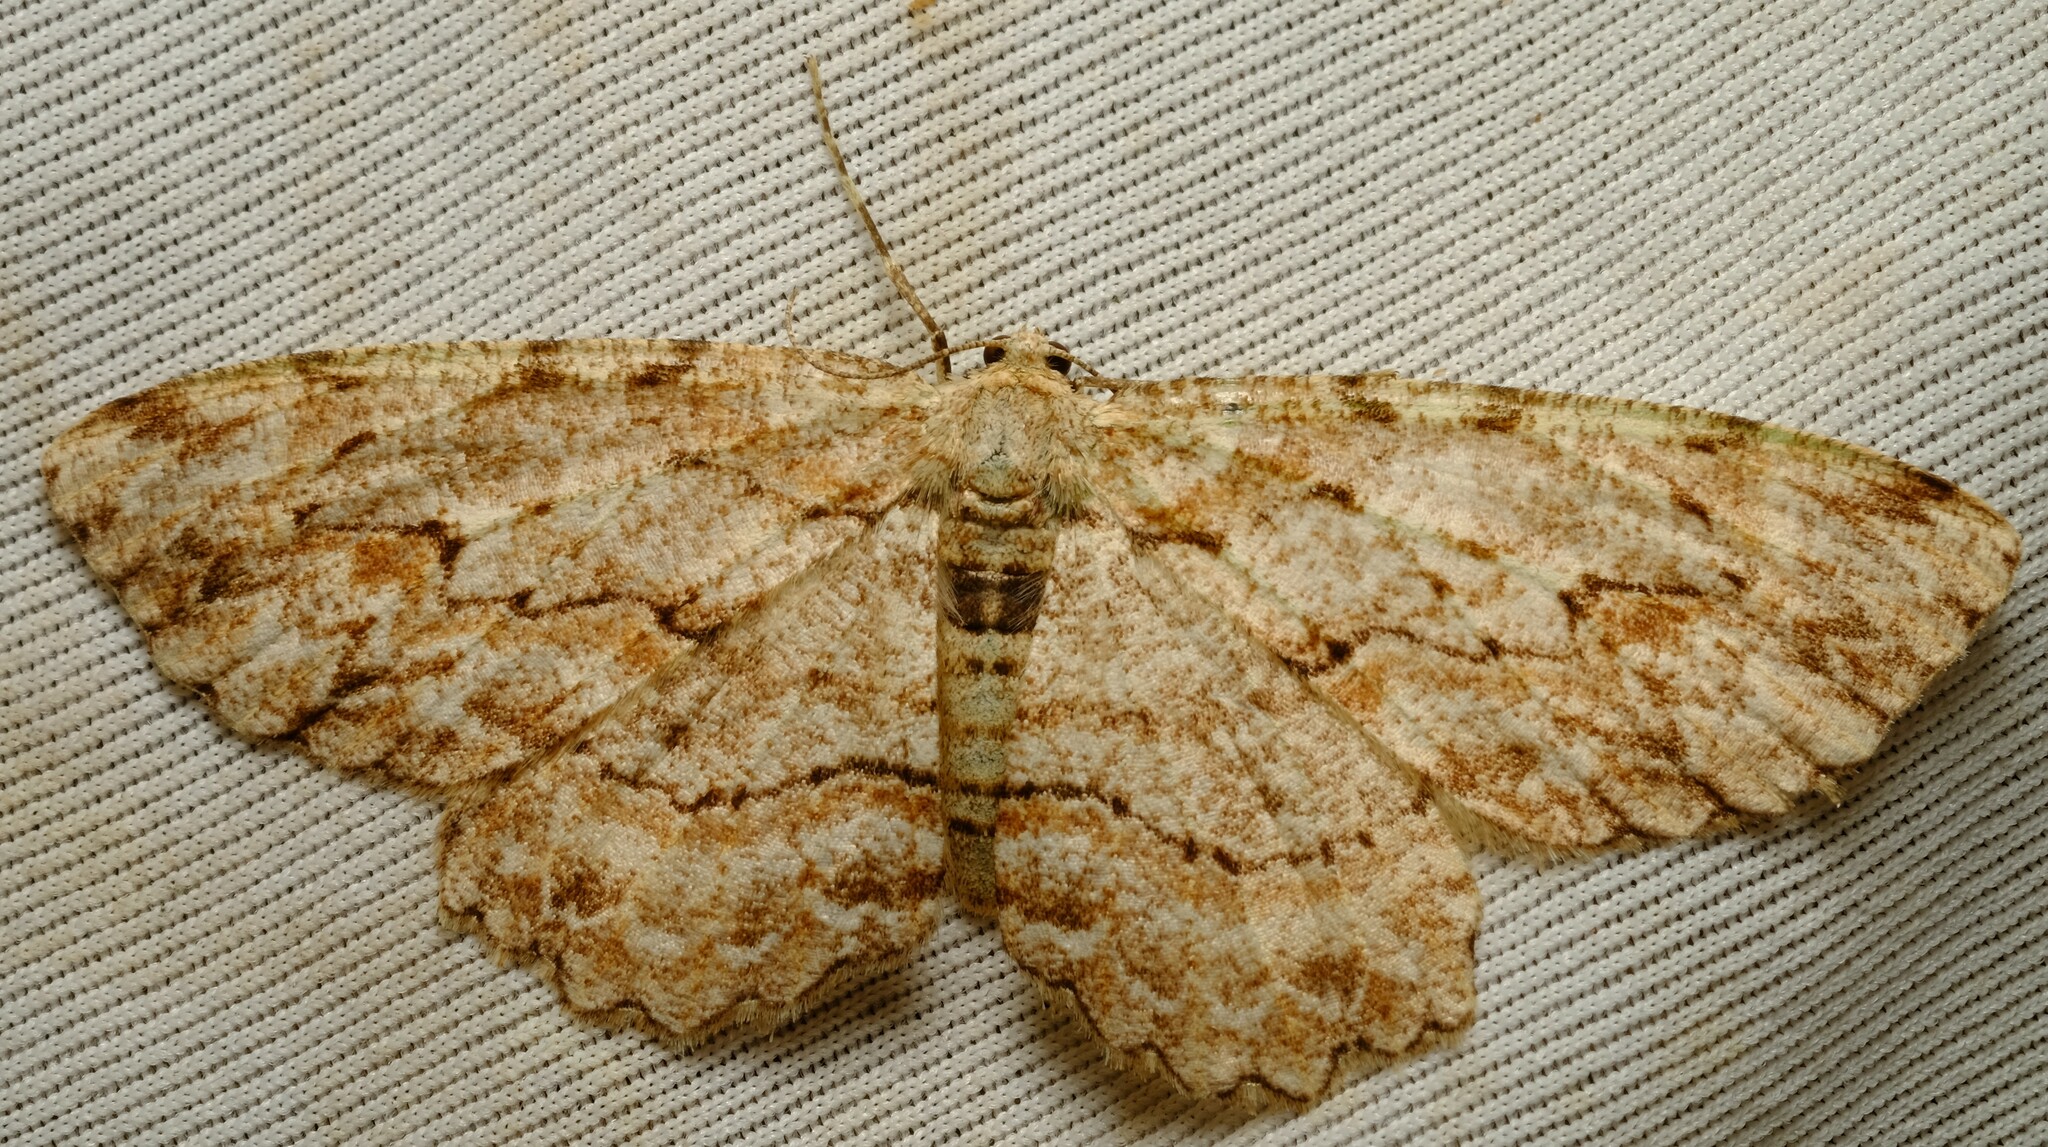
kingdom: Animalia
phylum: Arthropoda
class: Insecta
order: Lepidoptera
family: Geometridae
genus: Ectropis
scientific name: Ectropis bispinaria
